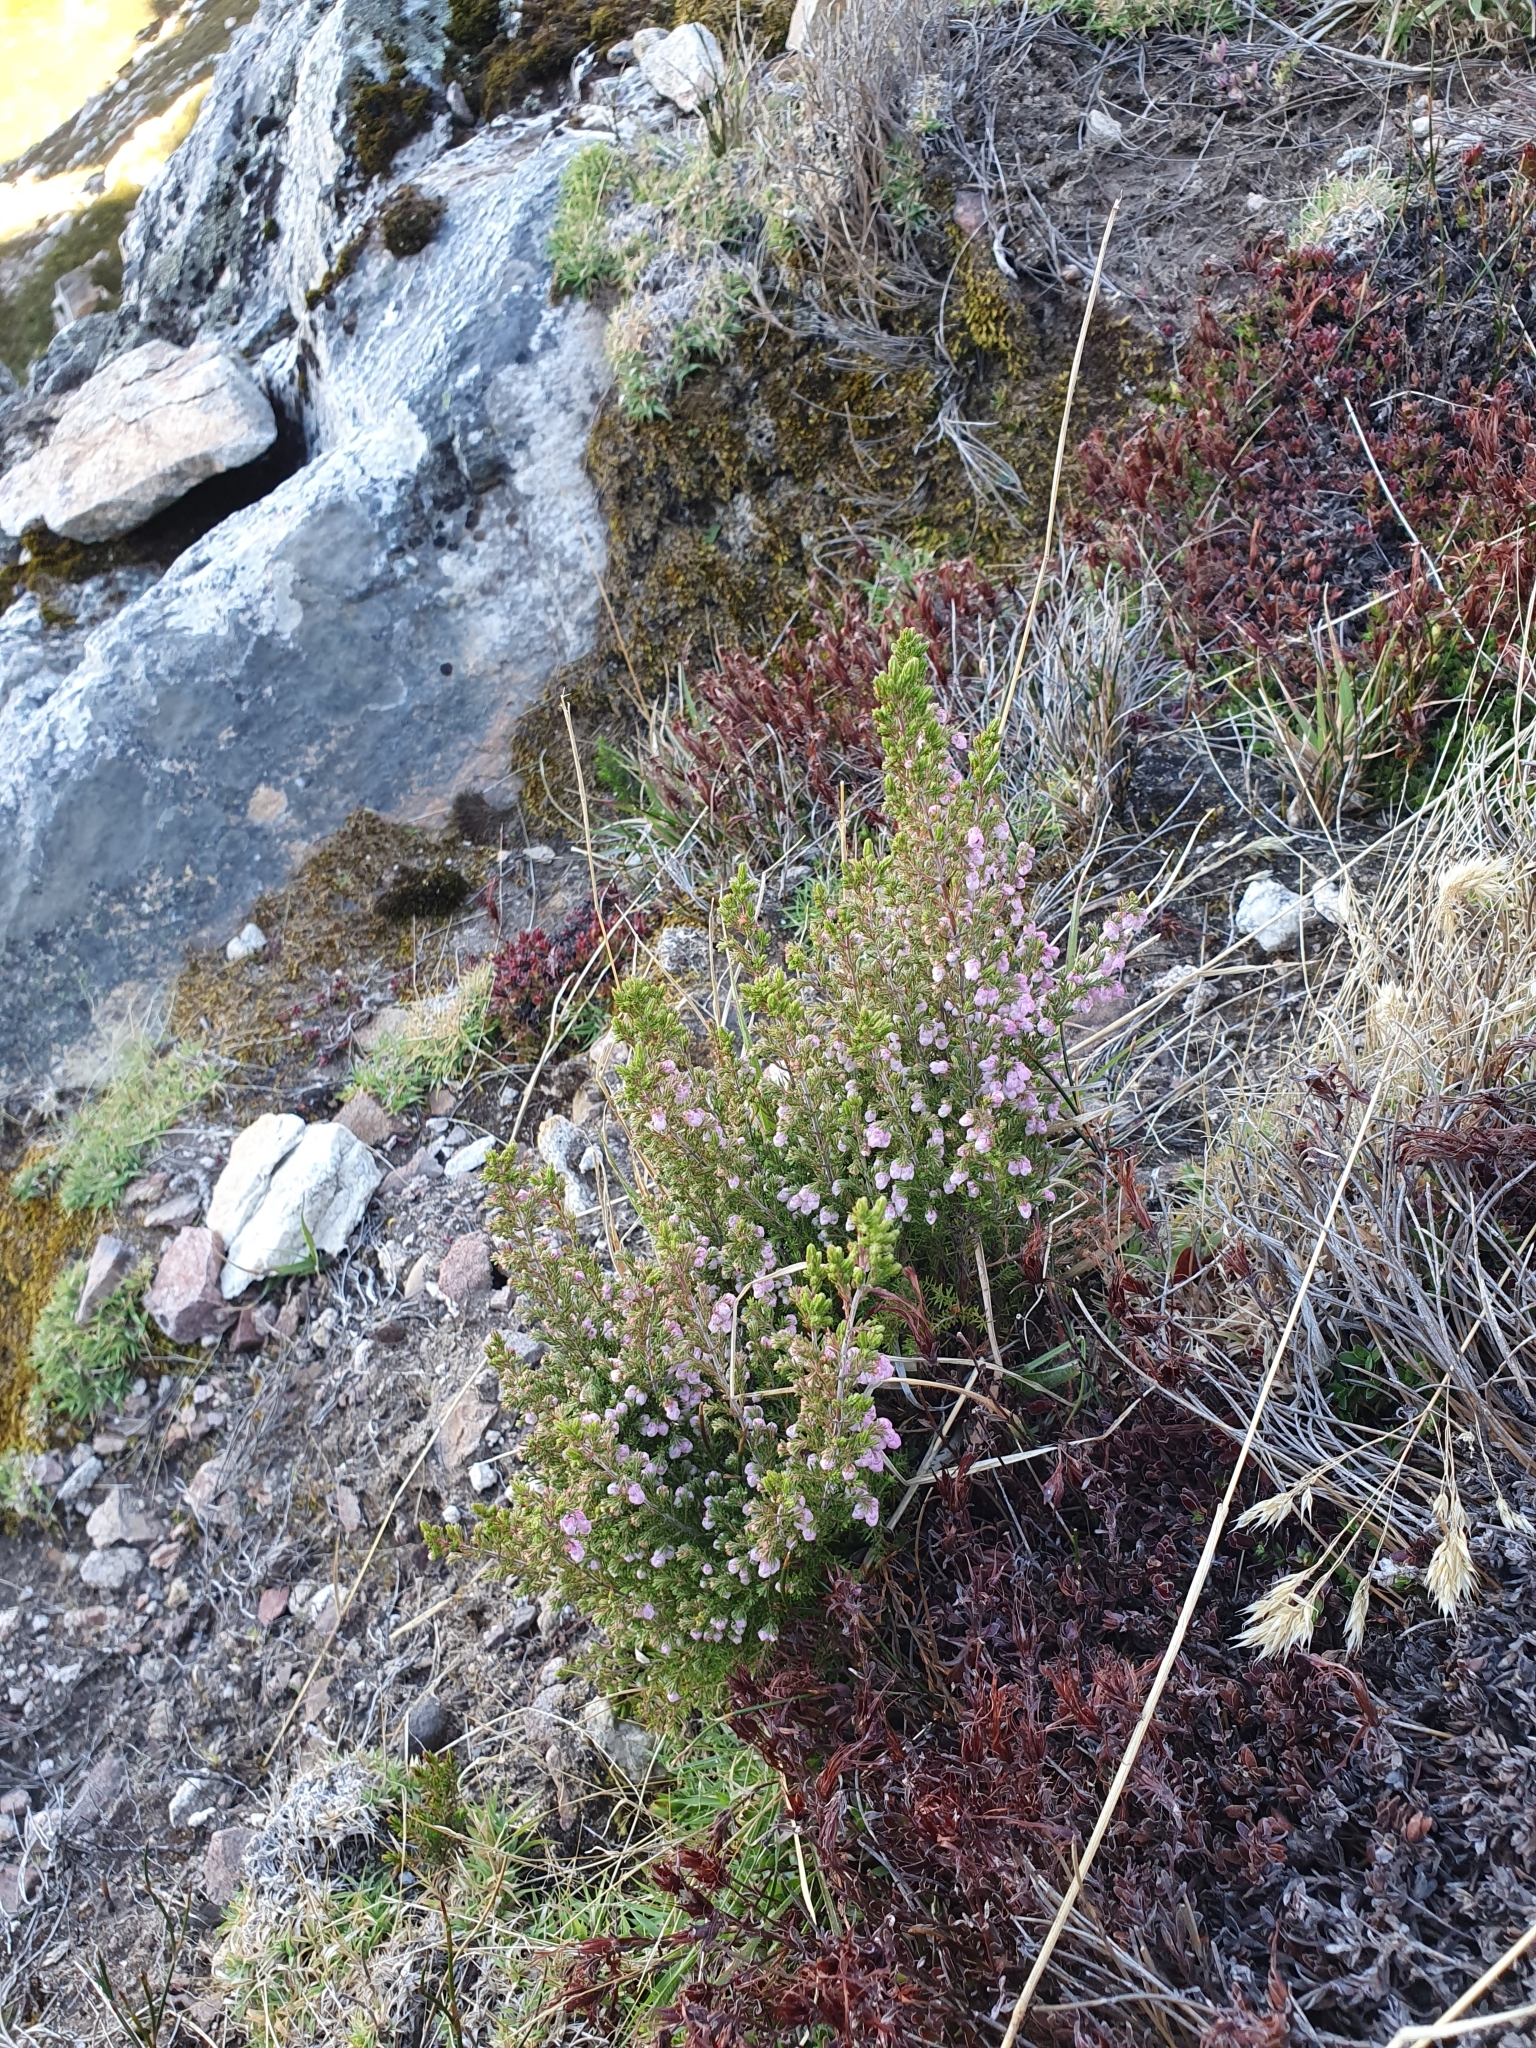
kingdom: Plantae
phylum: Tracheophyta
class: Magnoliopsida
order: Ericales
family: Ericaceae
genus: Erica
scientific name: Erica cristiflora
